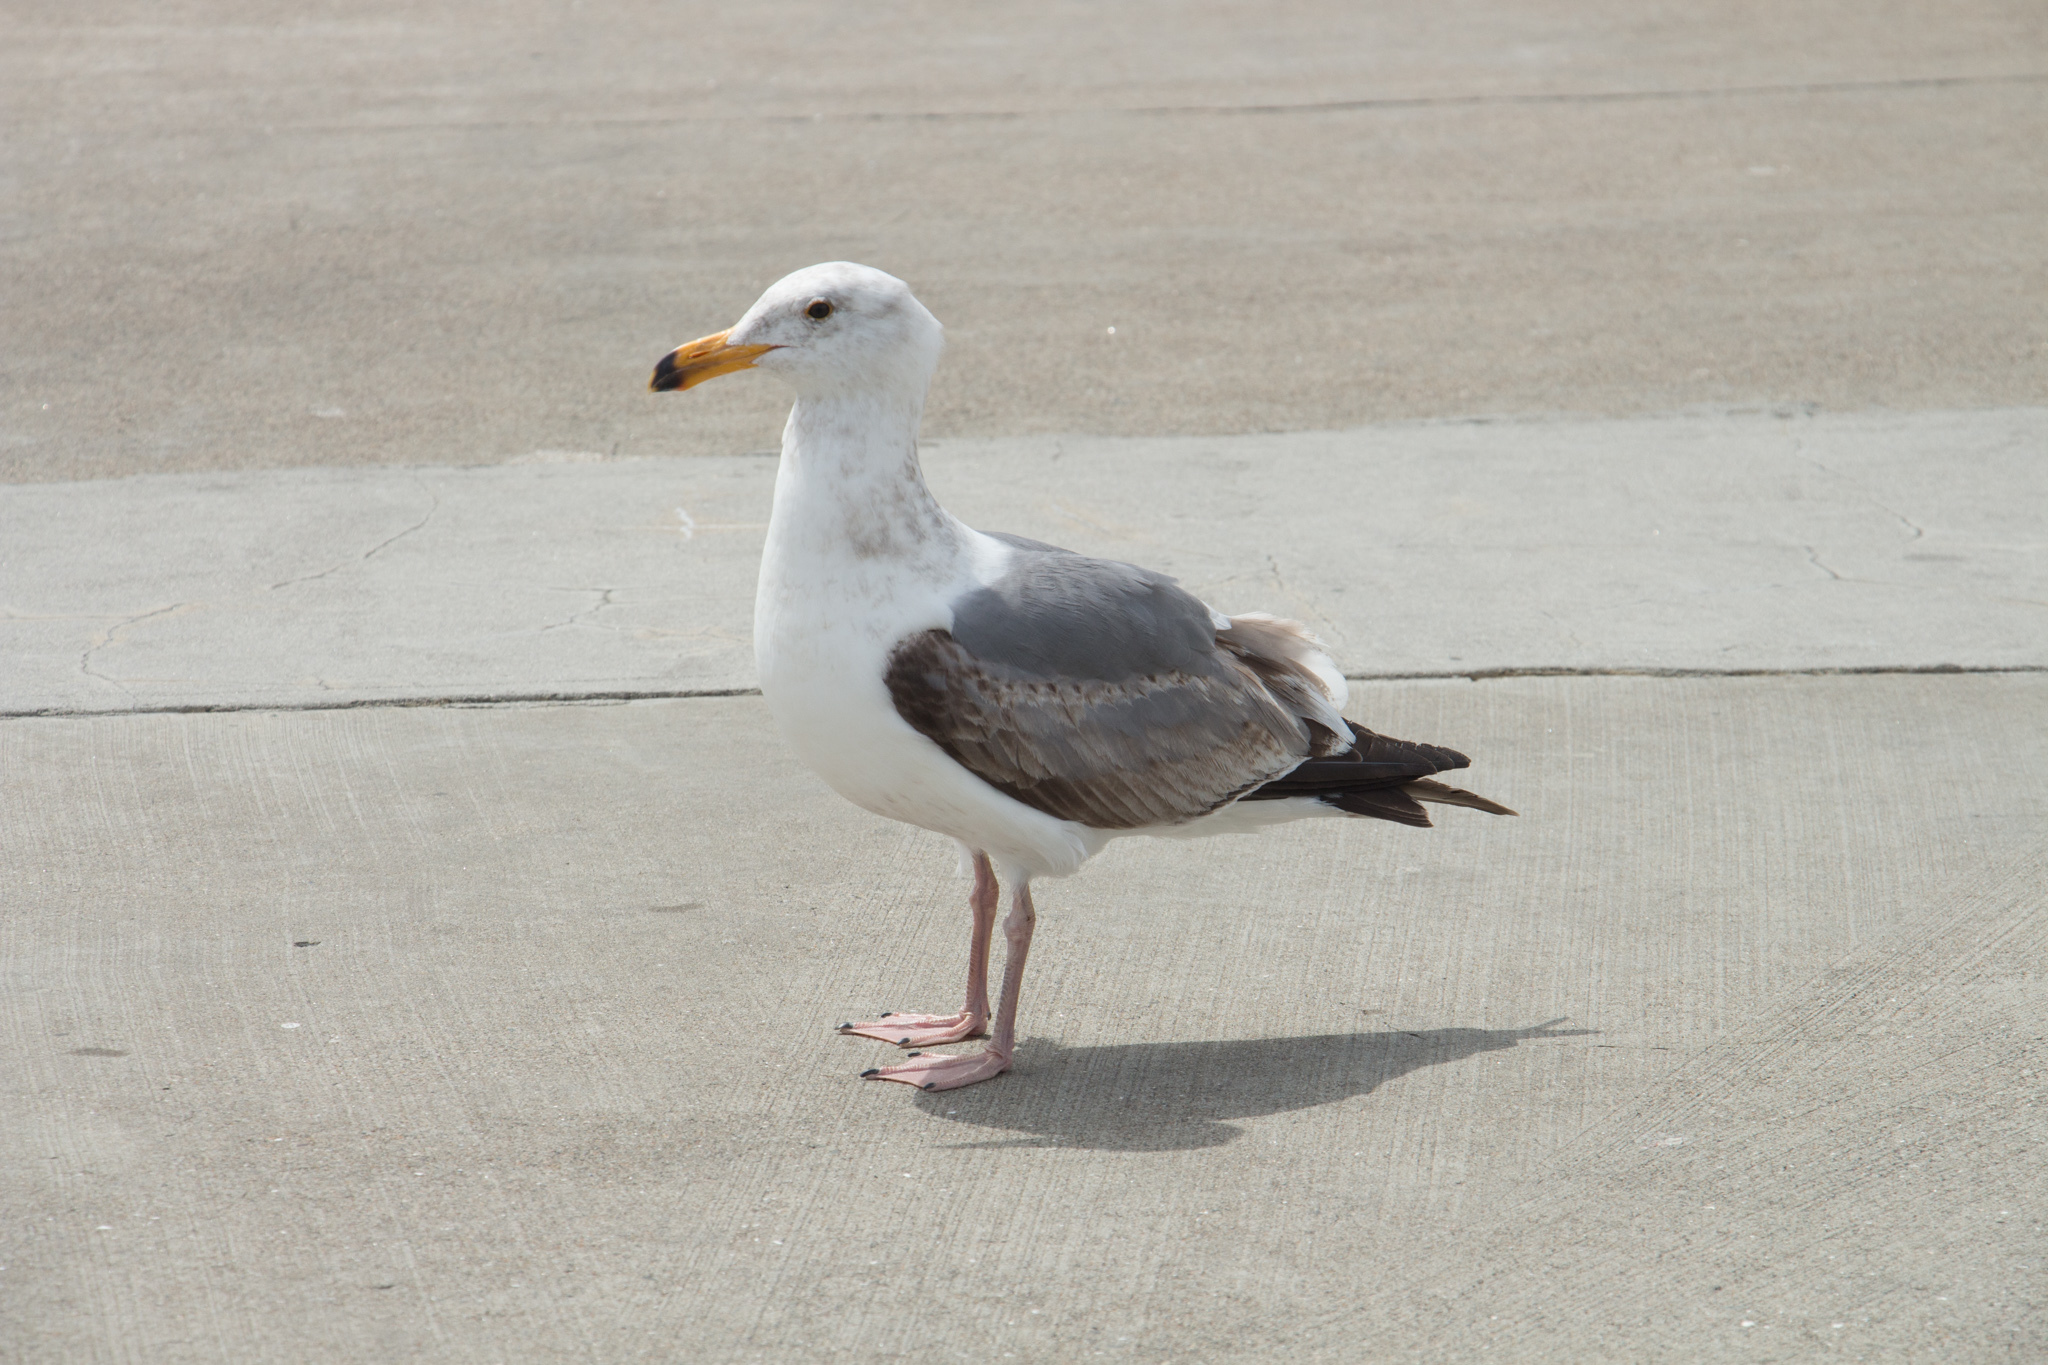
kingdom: Animalia
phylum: Chordata
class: Aves
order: Charadriiformes
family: Laridae
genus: Larus
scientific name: Larus occidentalis
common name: Western gull
